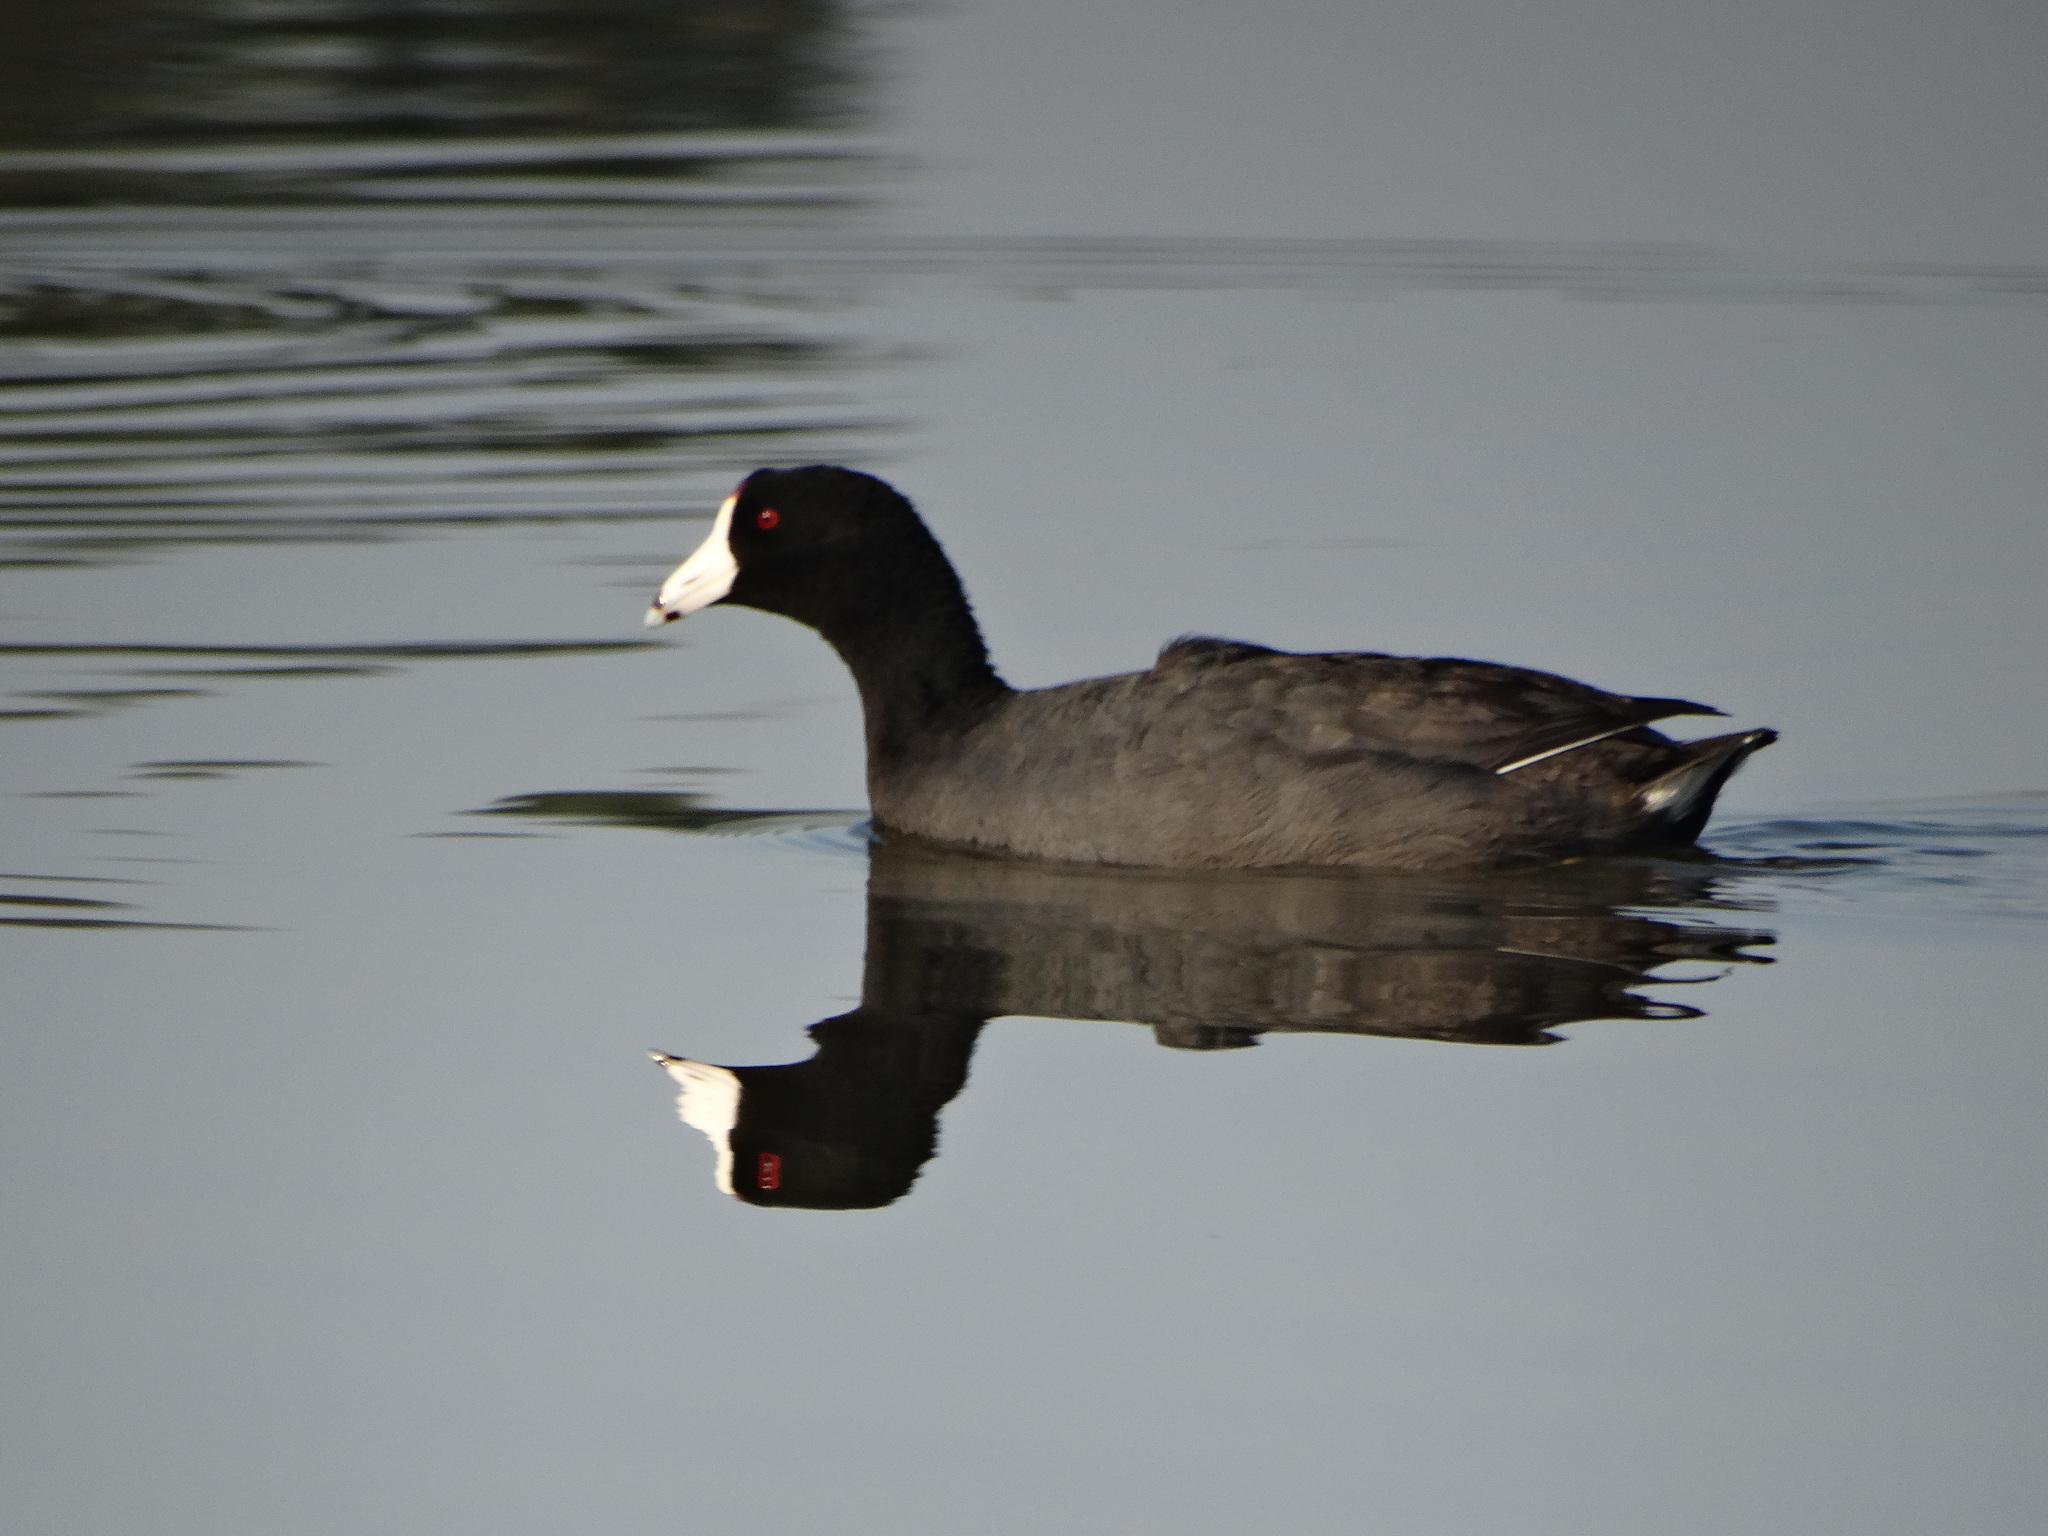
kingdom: Animalia
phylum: Chordata
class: Aves
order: Gruiformes
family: Rallidae
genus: Fulica
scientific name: Fulica americana
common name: American coot
